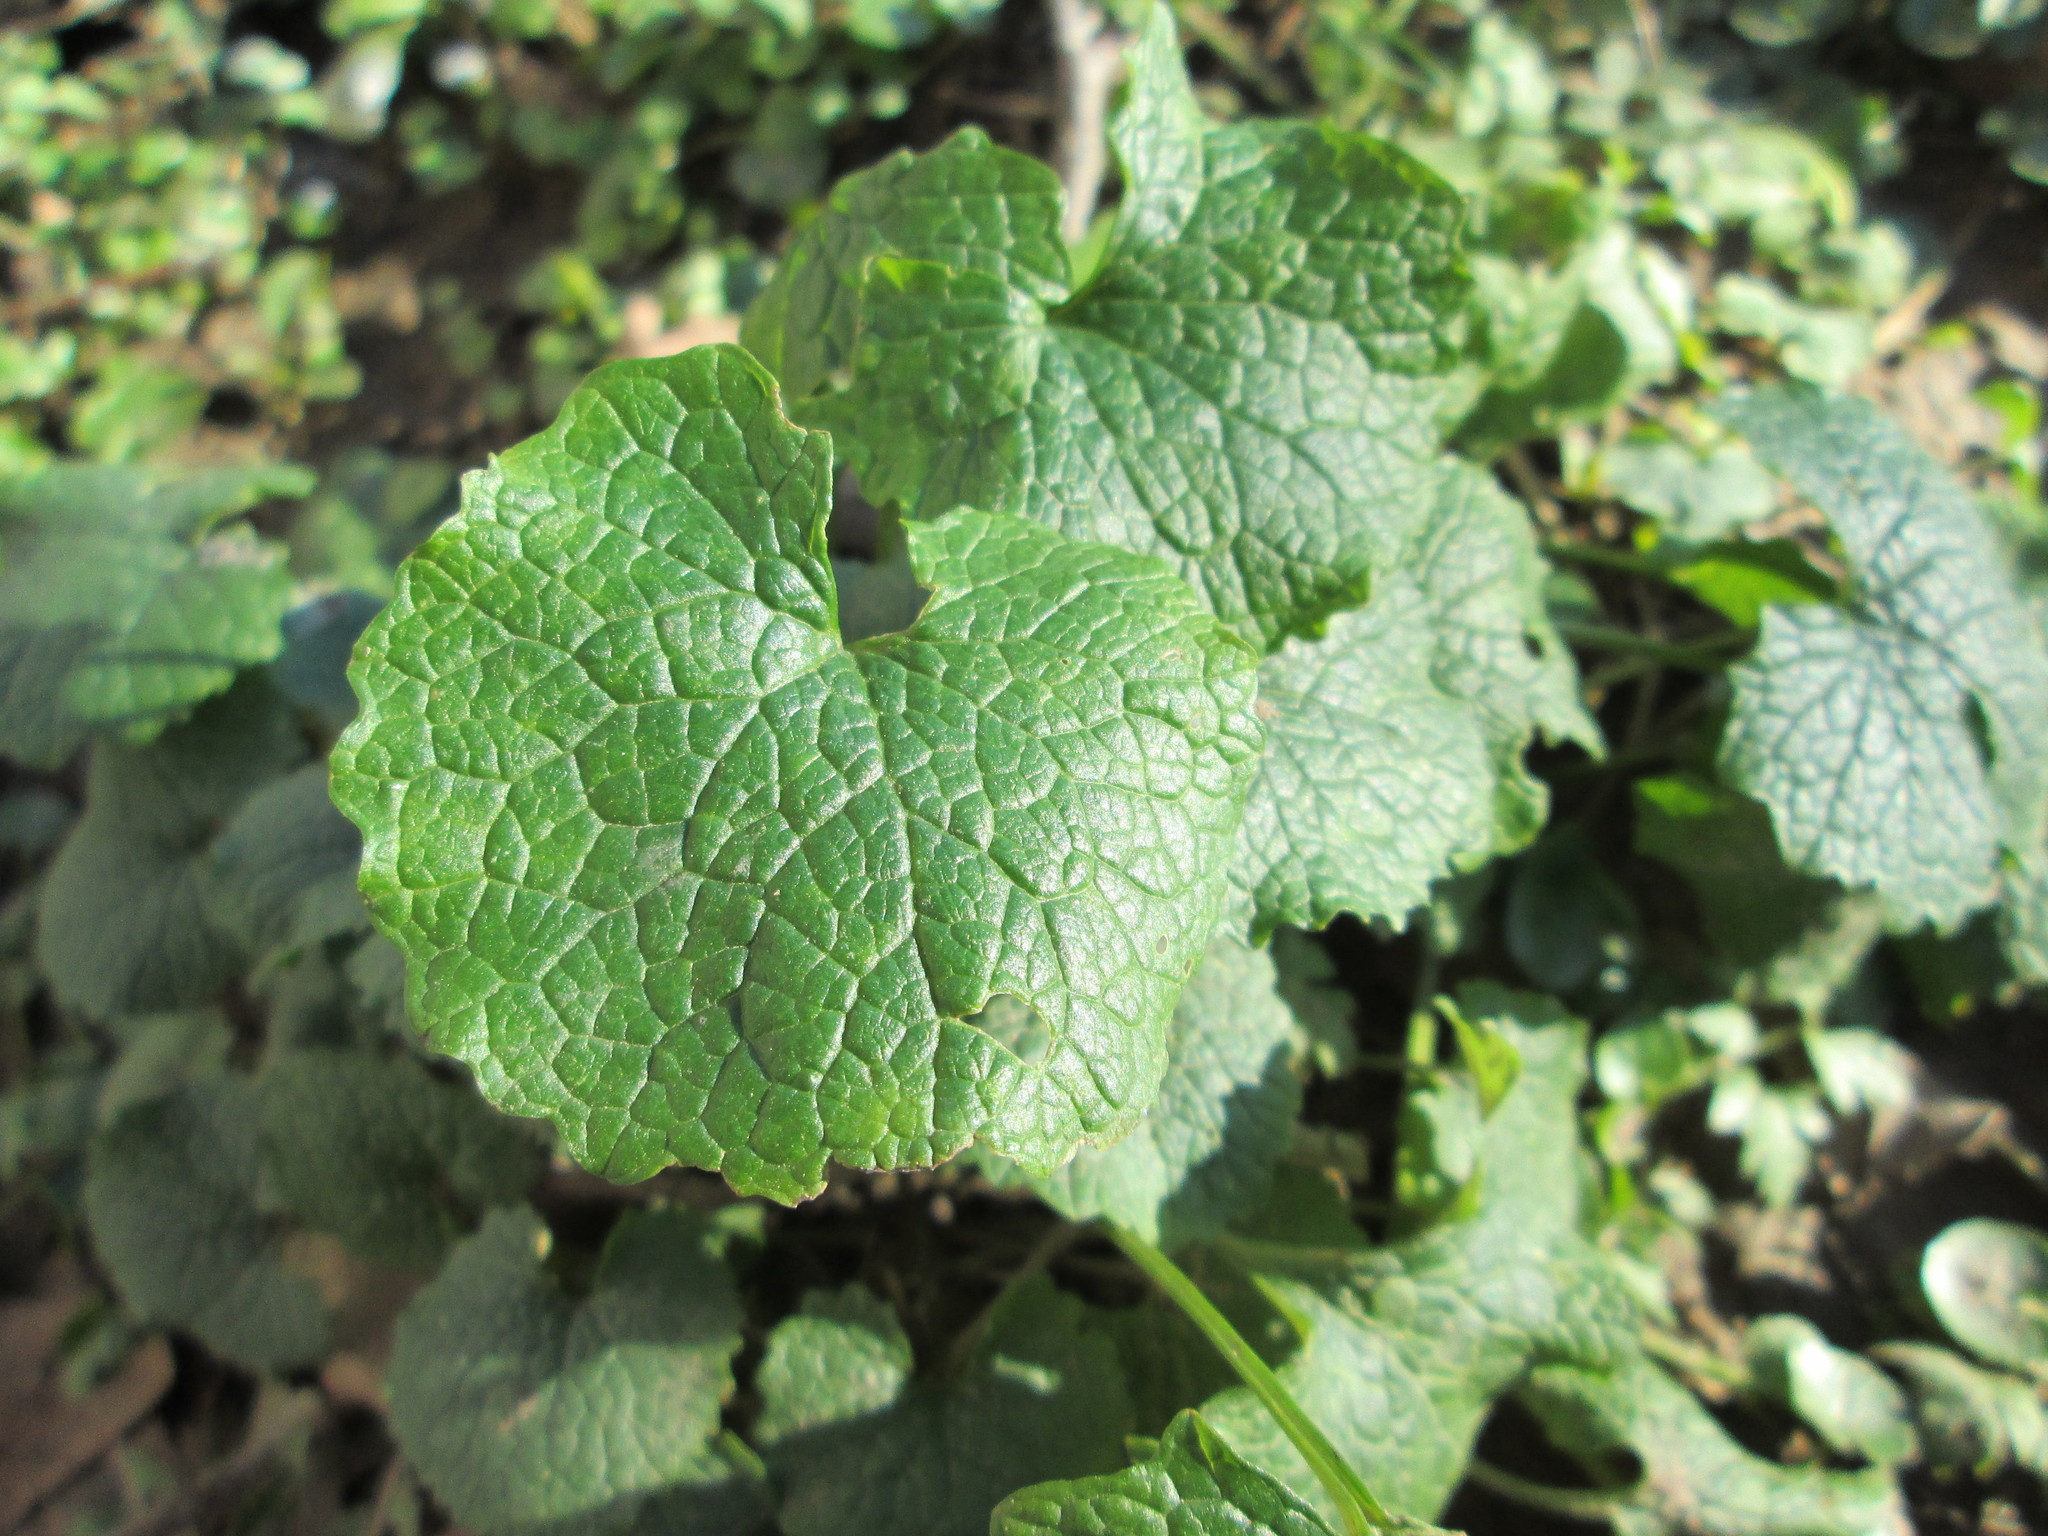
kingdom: Plantae
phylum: Tracheophyta
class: Magnoliopsida
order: Brassicales
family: Brassicaceae
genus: Alliaria
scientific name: Alliaria petiolata
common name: Garlic mustard
